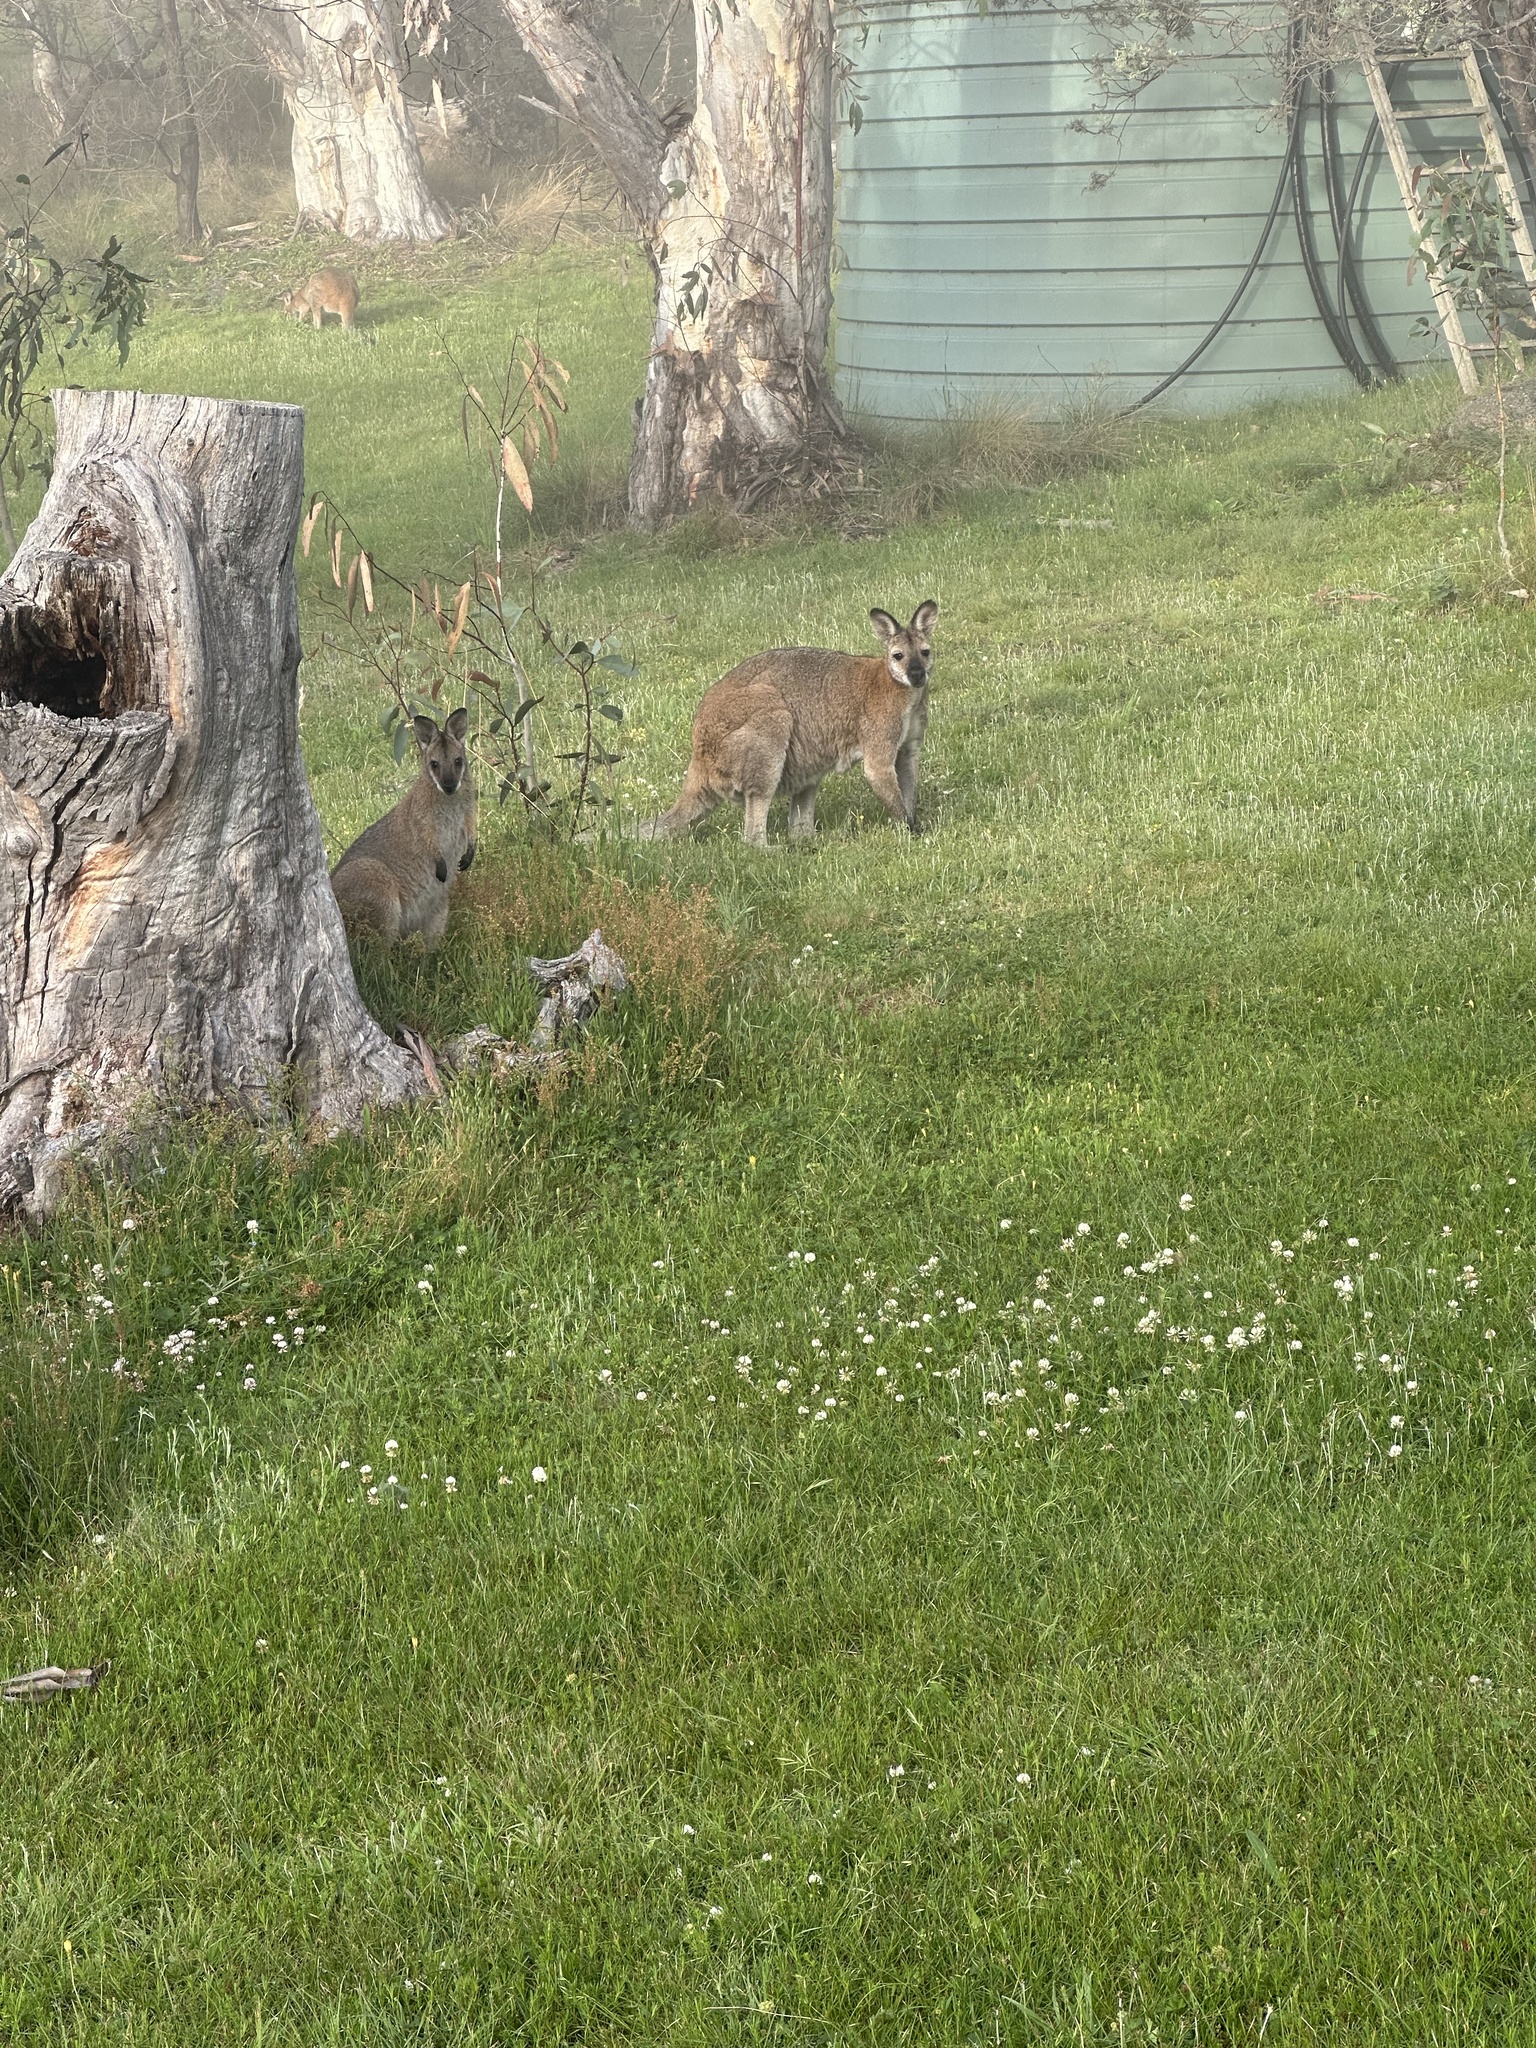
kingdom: Animalia
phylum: Chordata
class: Mammalia
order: Diprotodontia
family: Macropodidae
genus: Notamacropus
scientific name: Notamacropus rufogriseus
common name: Red-necked wallaby
